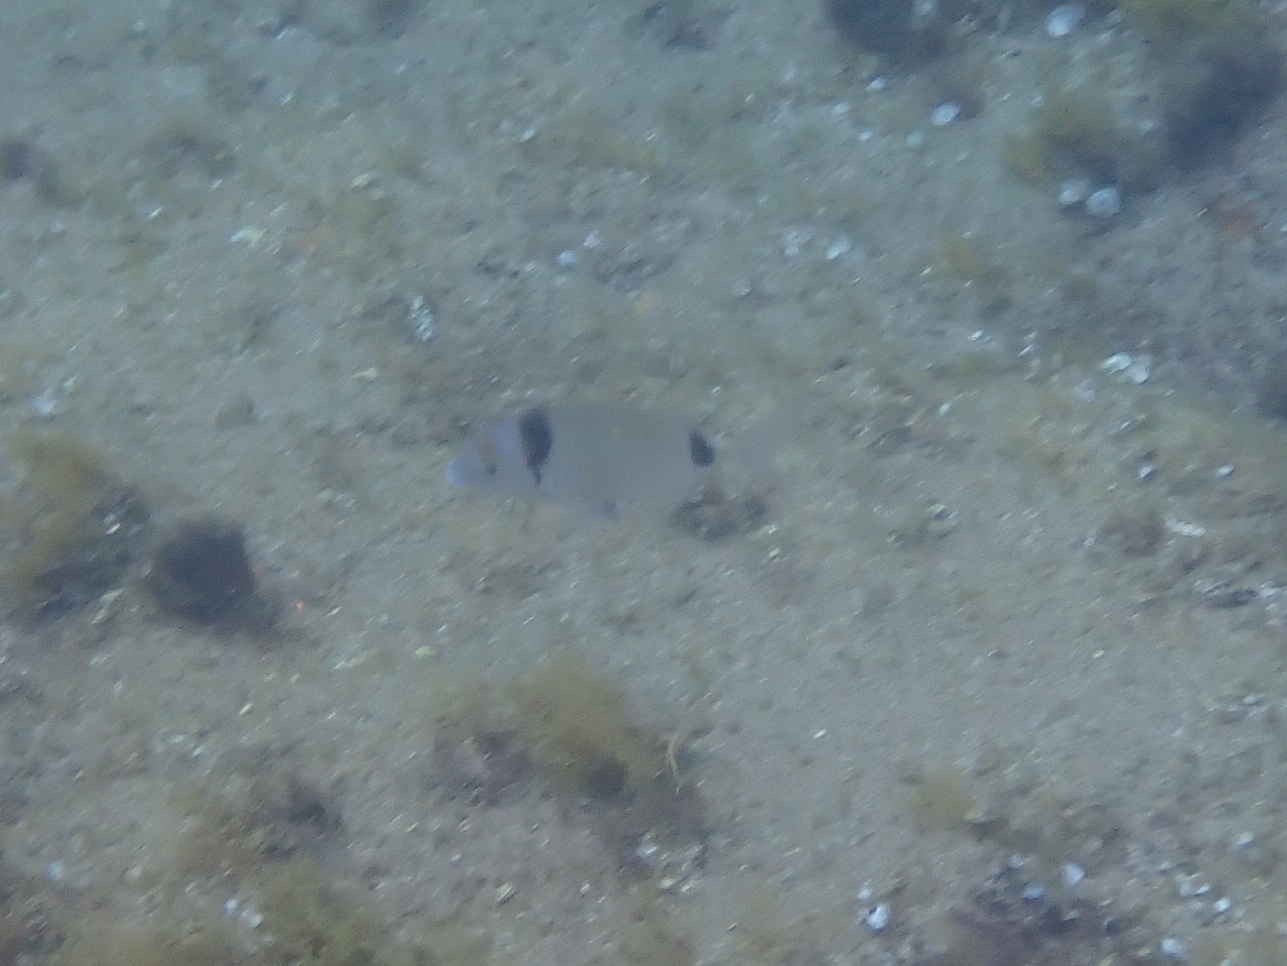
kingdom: Animalia
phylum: Chordata
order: Perciformes
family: Sparidae
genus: Diplodus
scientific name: Diplodus vulgaris
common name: Common two-banded seabream
